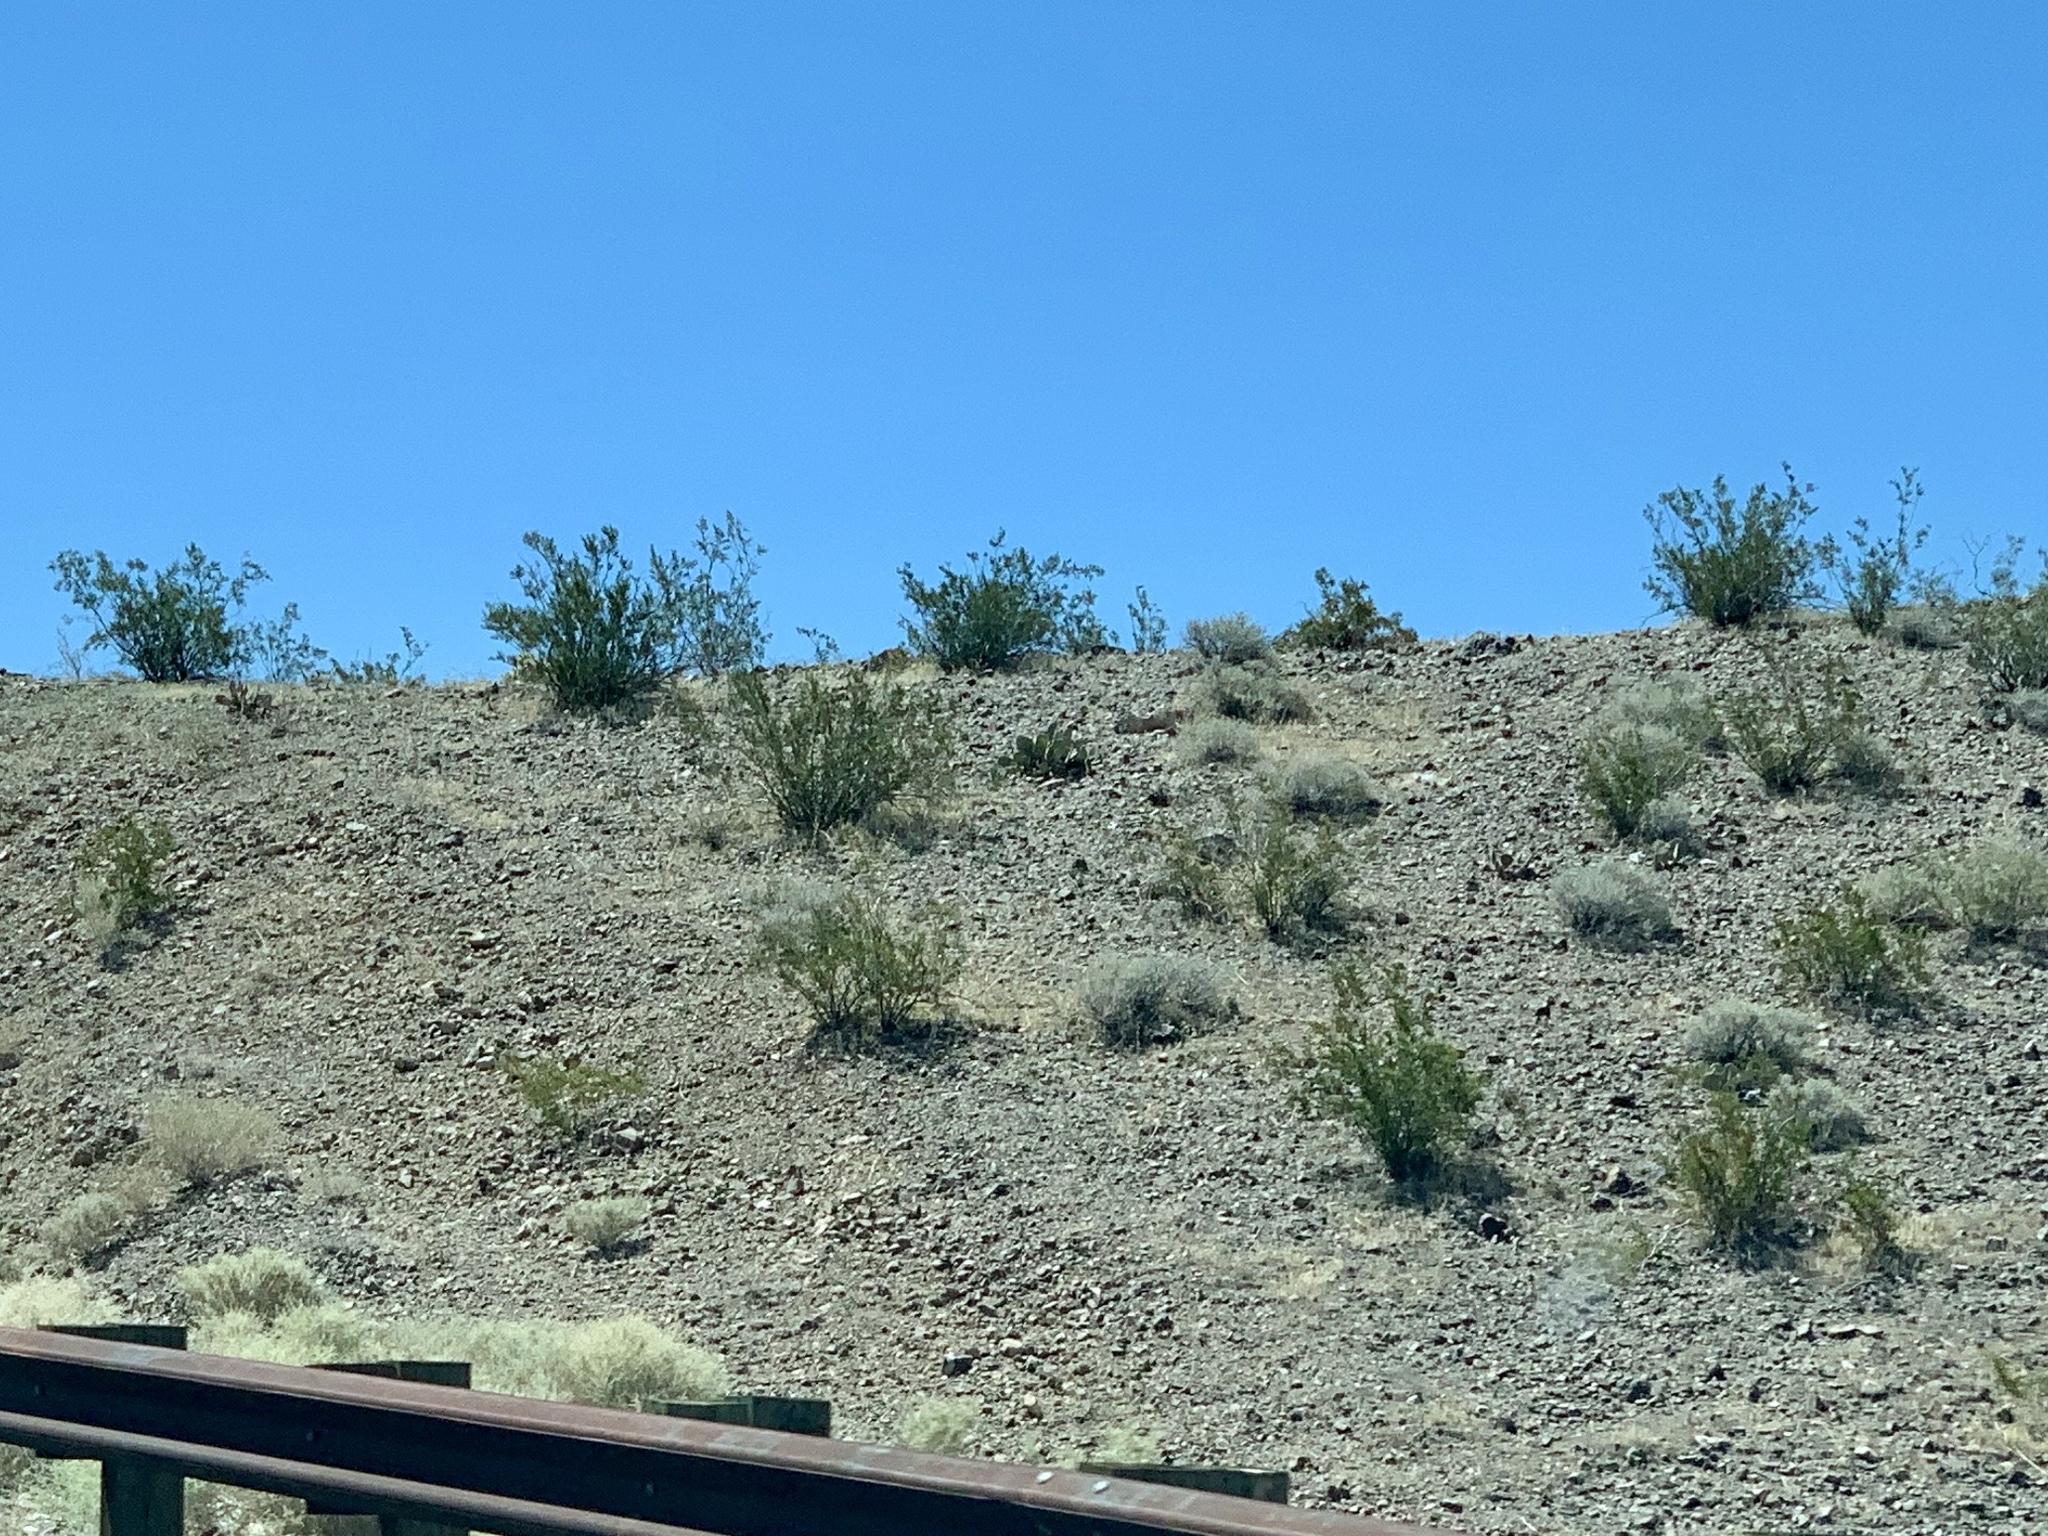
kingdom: Plantae
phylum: Tracheophyta
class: Magnoliopsida
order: Zygophyllales
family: Zygophyllaceae
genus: Larrea
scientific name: Larrea tridentata
